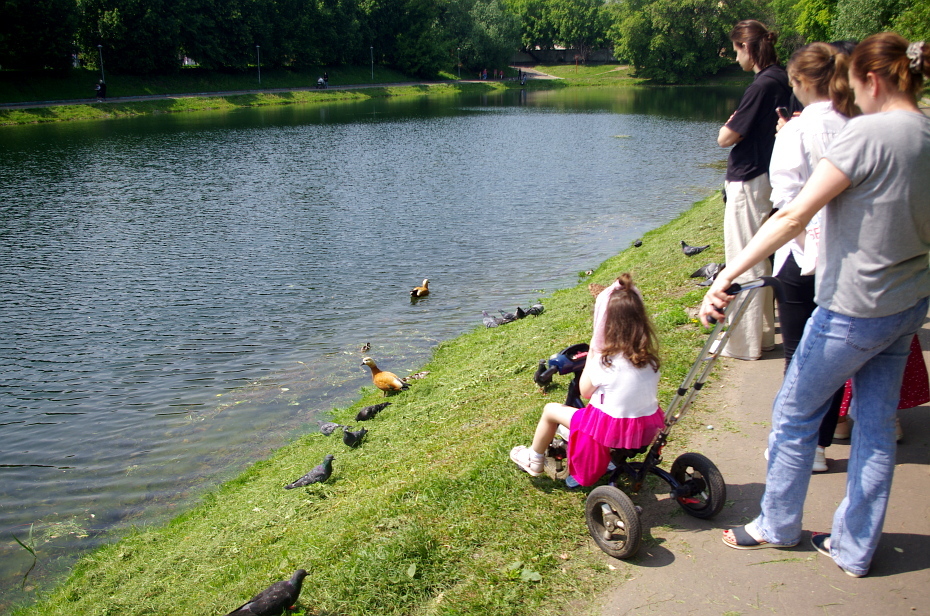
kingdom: Animalia
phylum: Chordata
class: Aves
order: Columbiformes
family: Columbidae
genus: Columba
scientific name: Columba livia
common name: Rock pigeon
